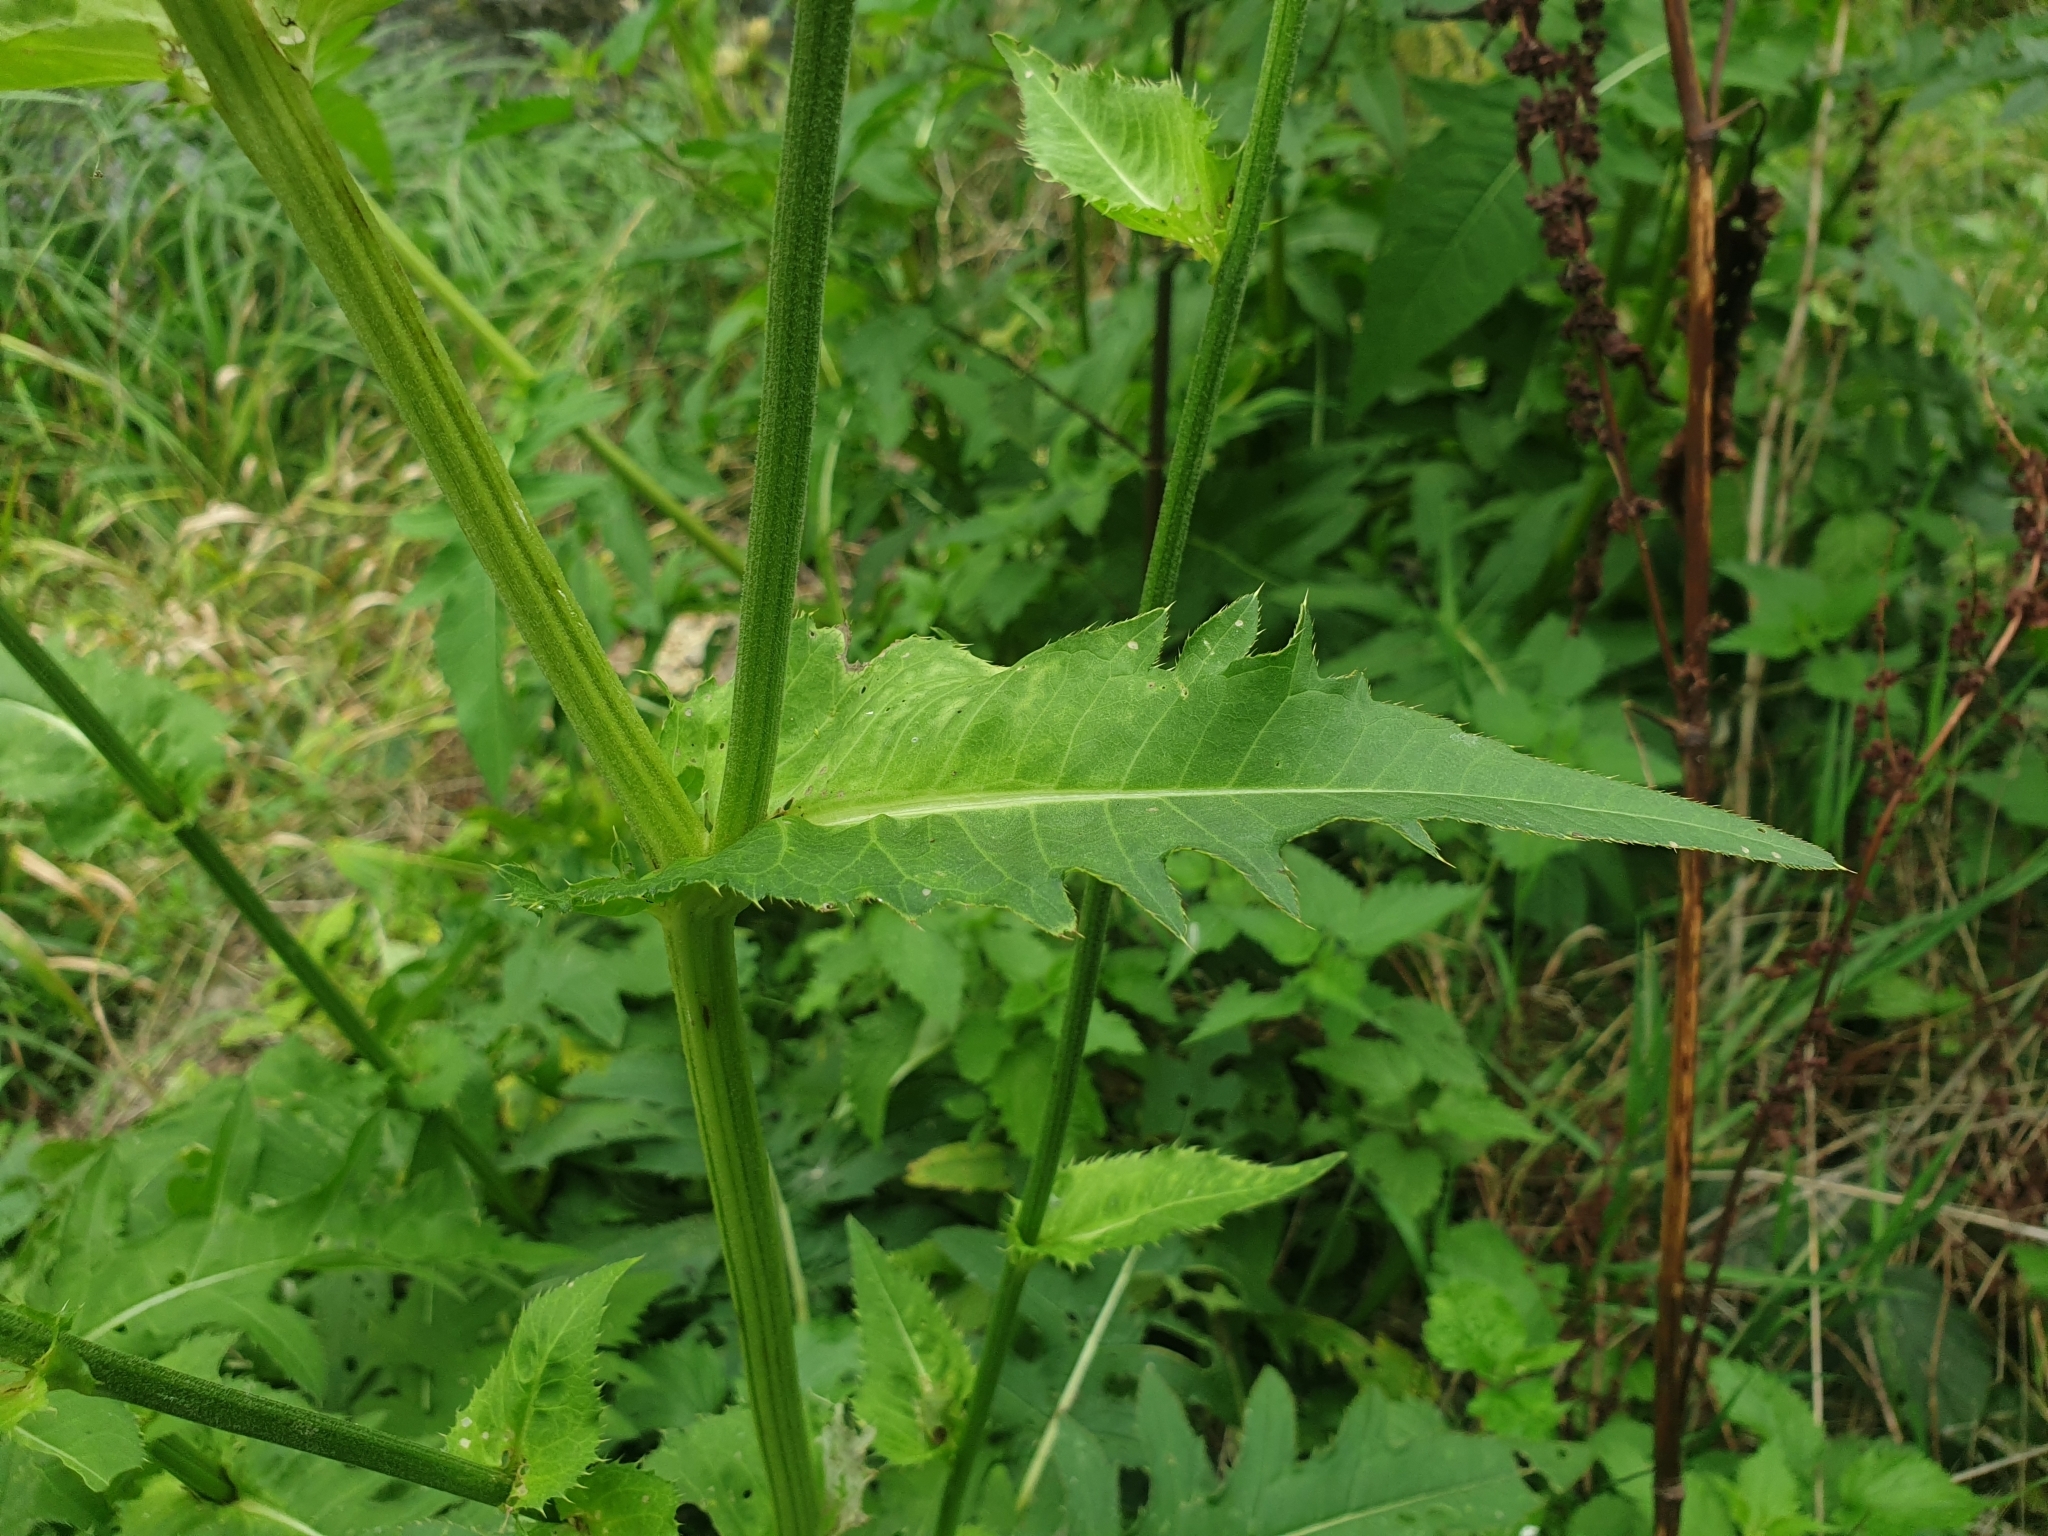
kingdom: Plantae
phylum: Tracheophyta
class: Magnoliopsida
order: Asterales
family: Asteraceae
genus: Cirsium
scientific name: Cirsium oleraceum
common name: Cabbage thistle
